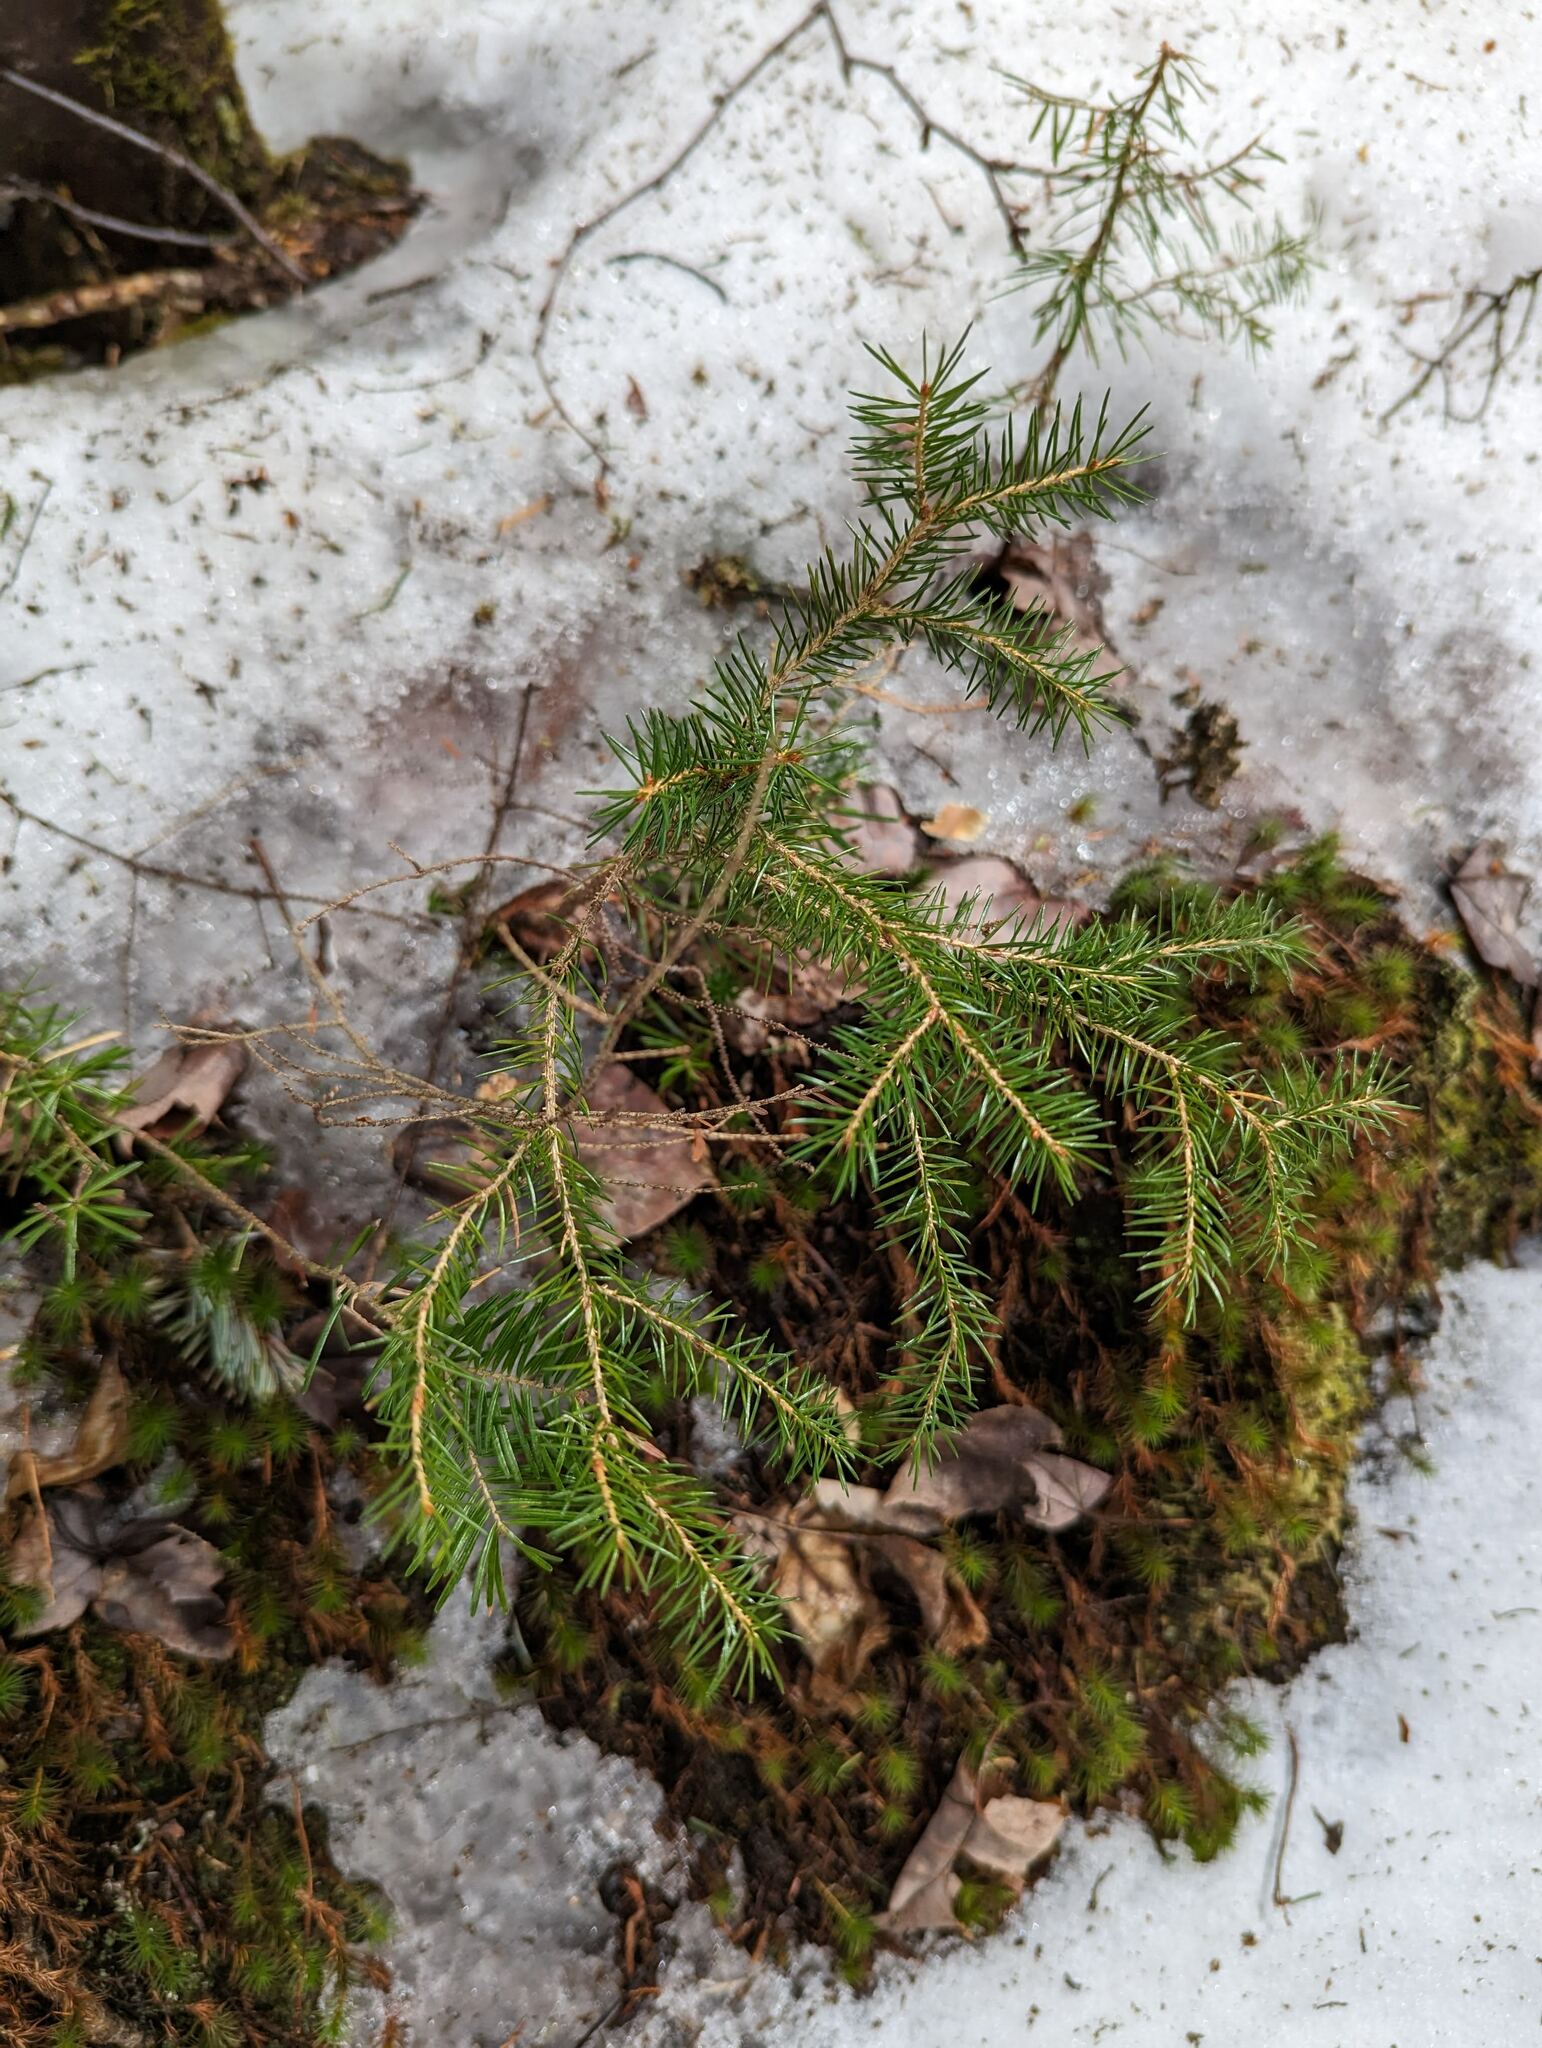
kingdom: Plantae
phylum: Tracheophyta
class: Pinopsida
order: Pinales
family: Pinaceae
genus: Picea
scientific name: Picea rubens
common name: Red spruce
